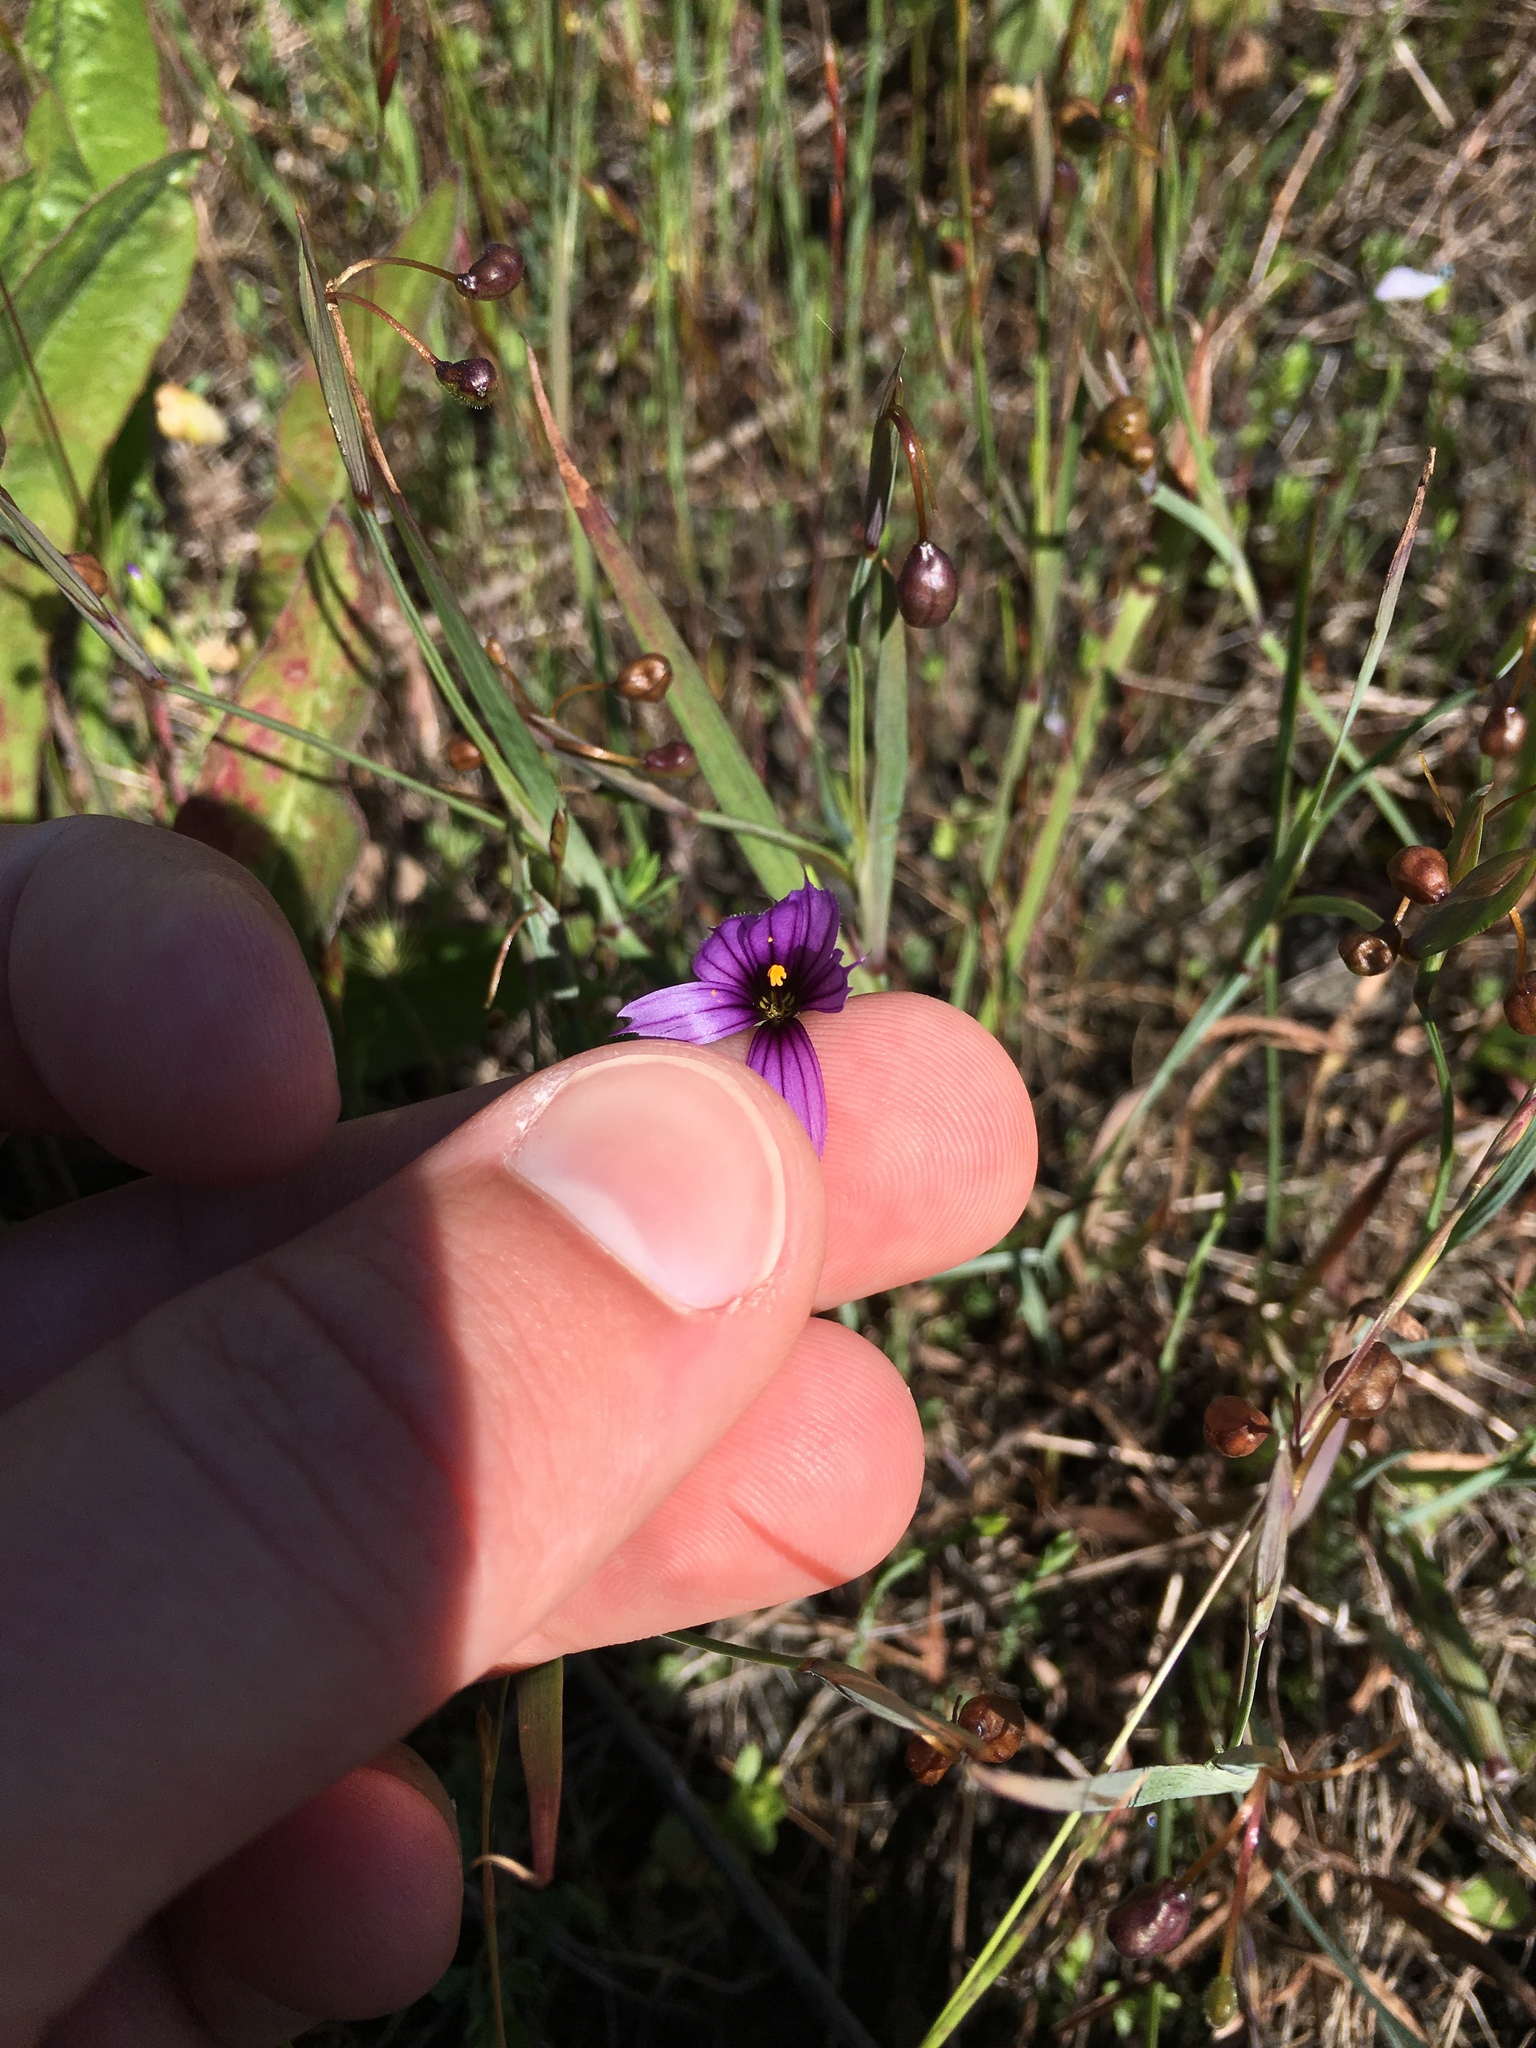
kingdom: Plantae
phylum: Tracheophyta
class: Liliopsida
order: Asparagales
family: Iridaceae
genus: Sisyrinchium
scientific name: Sisyrinchium bellum
